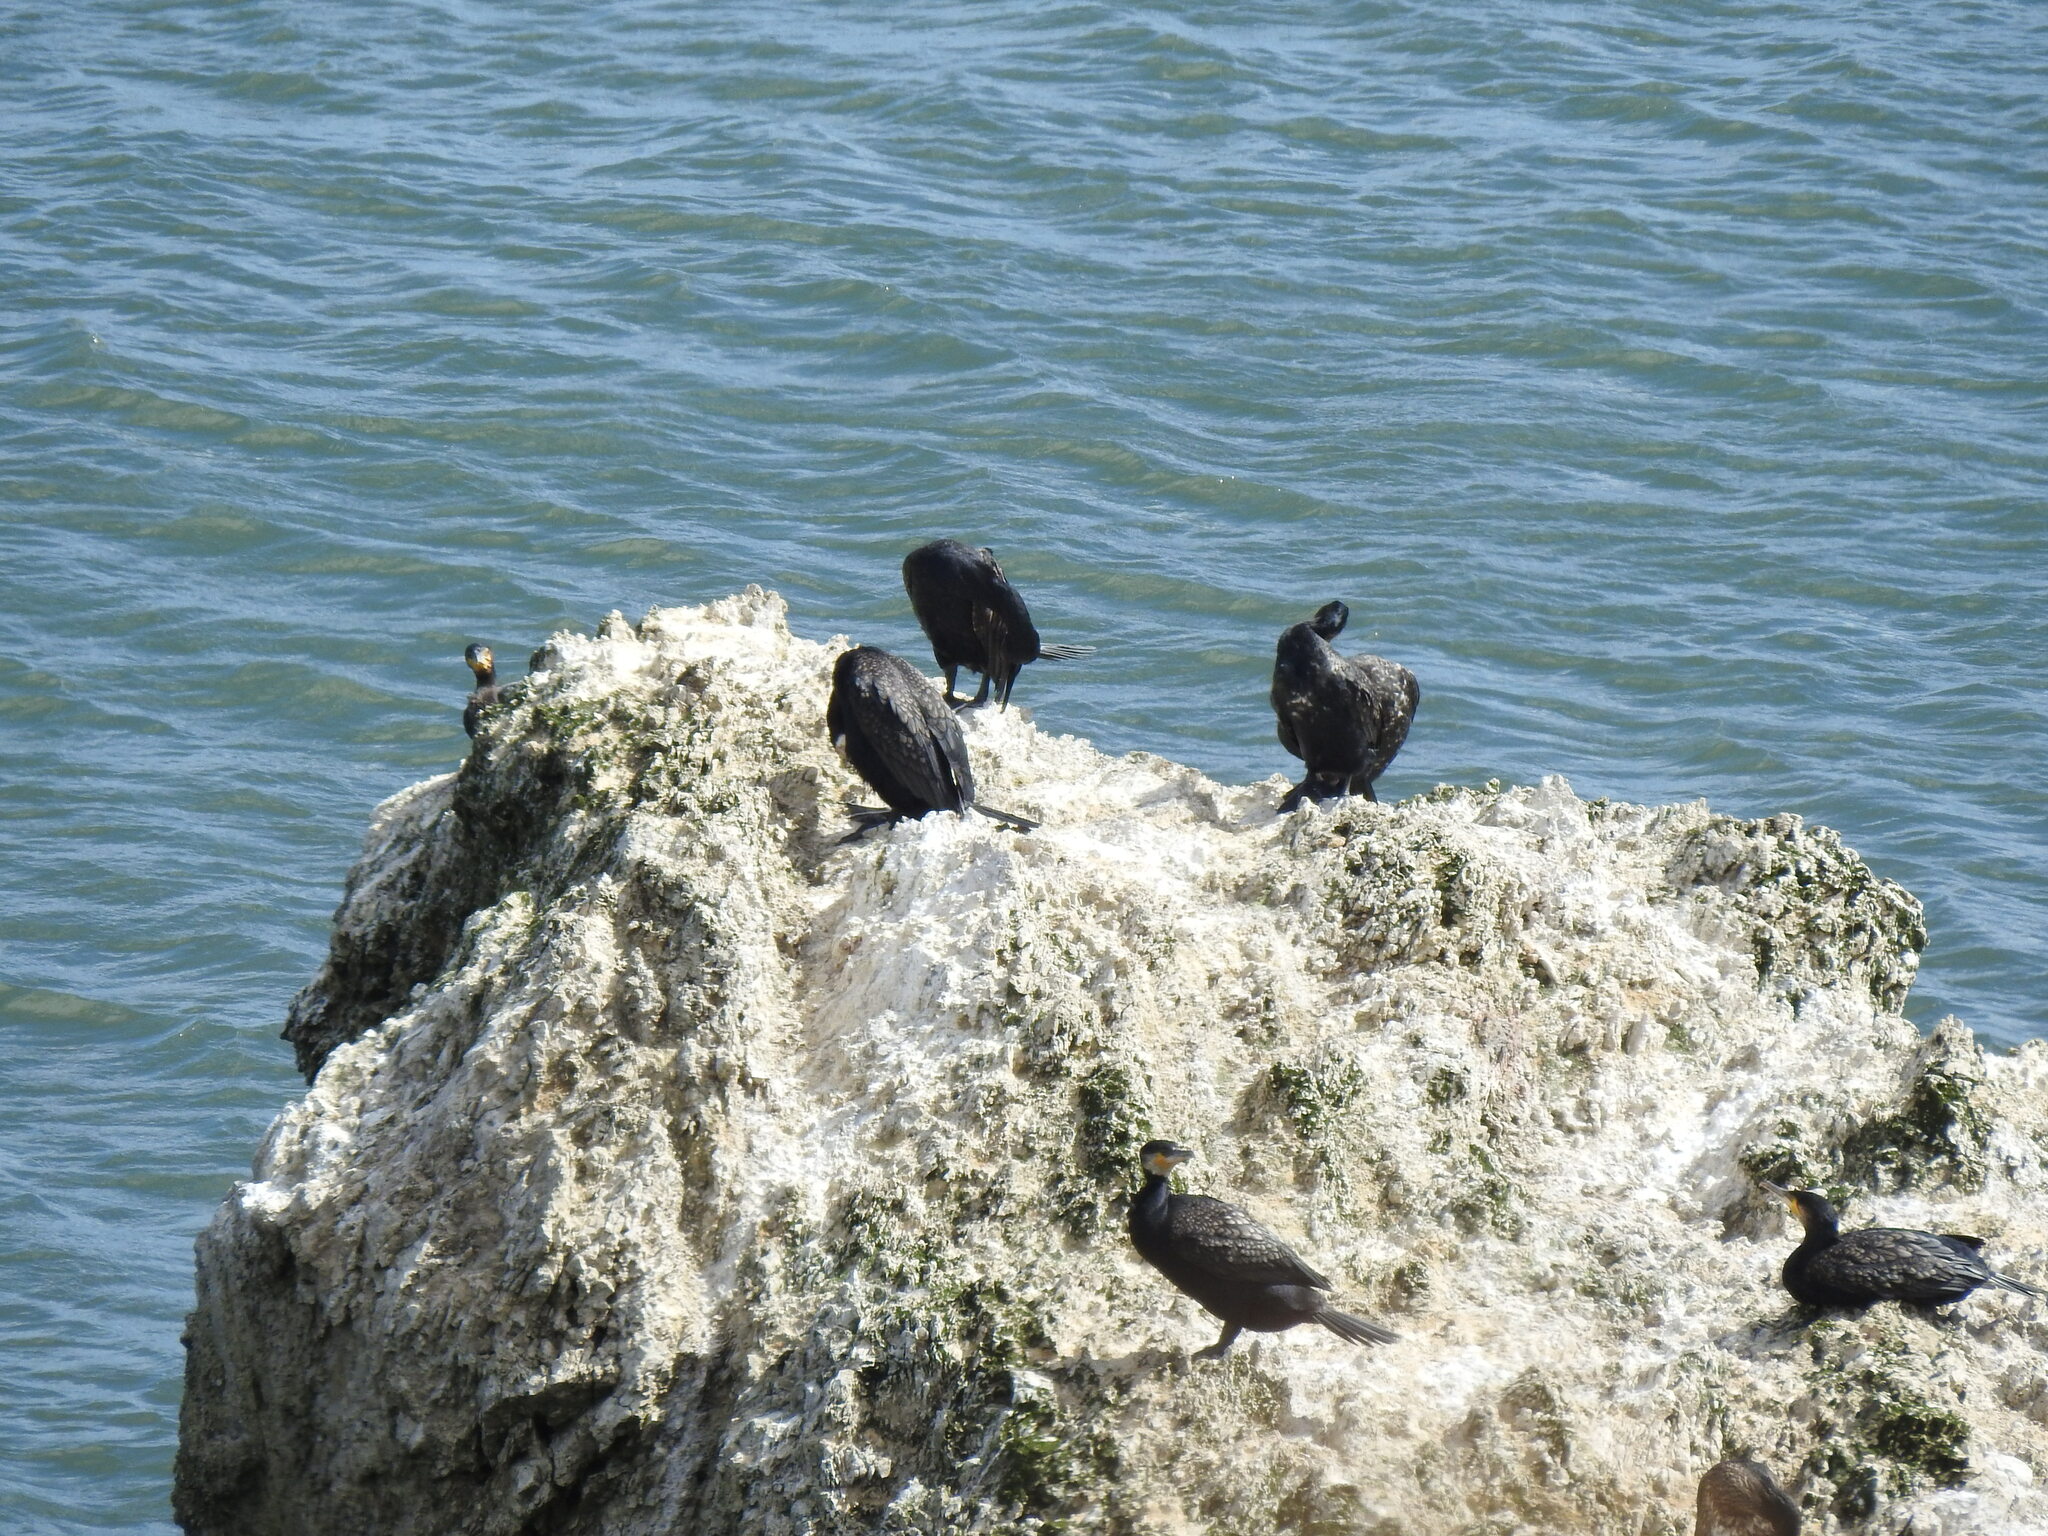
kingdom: Animalia
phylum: Chordata
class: Aves
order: Suliformes
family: Phalacrocoracidae
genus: Phalacrocorax
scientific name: Phalacrocorax carbo
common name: Great cormorant
